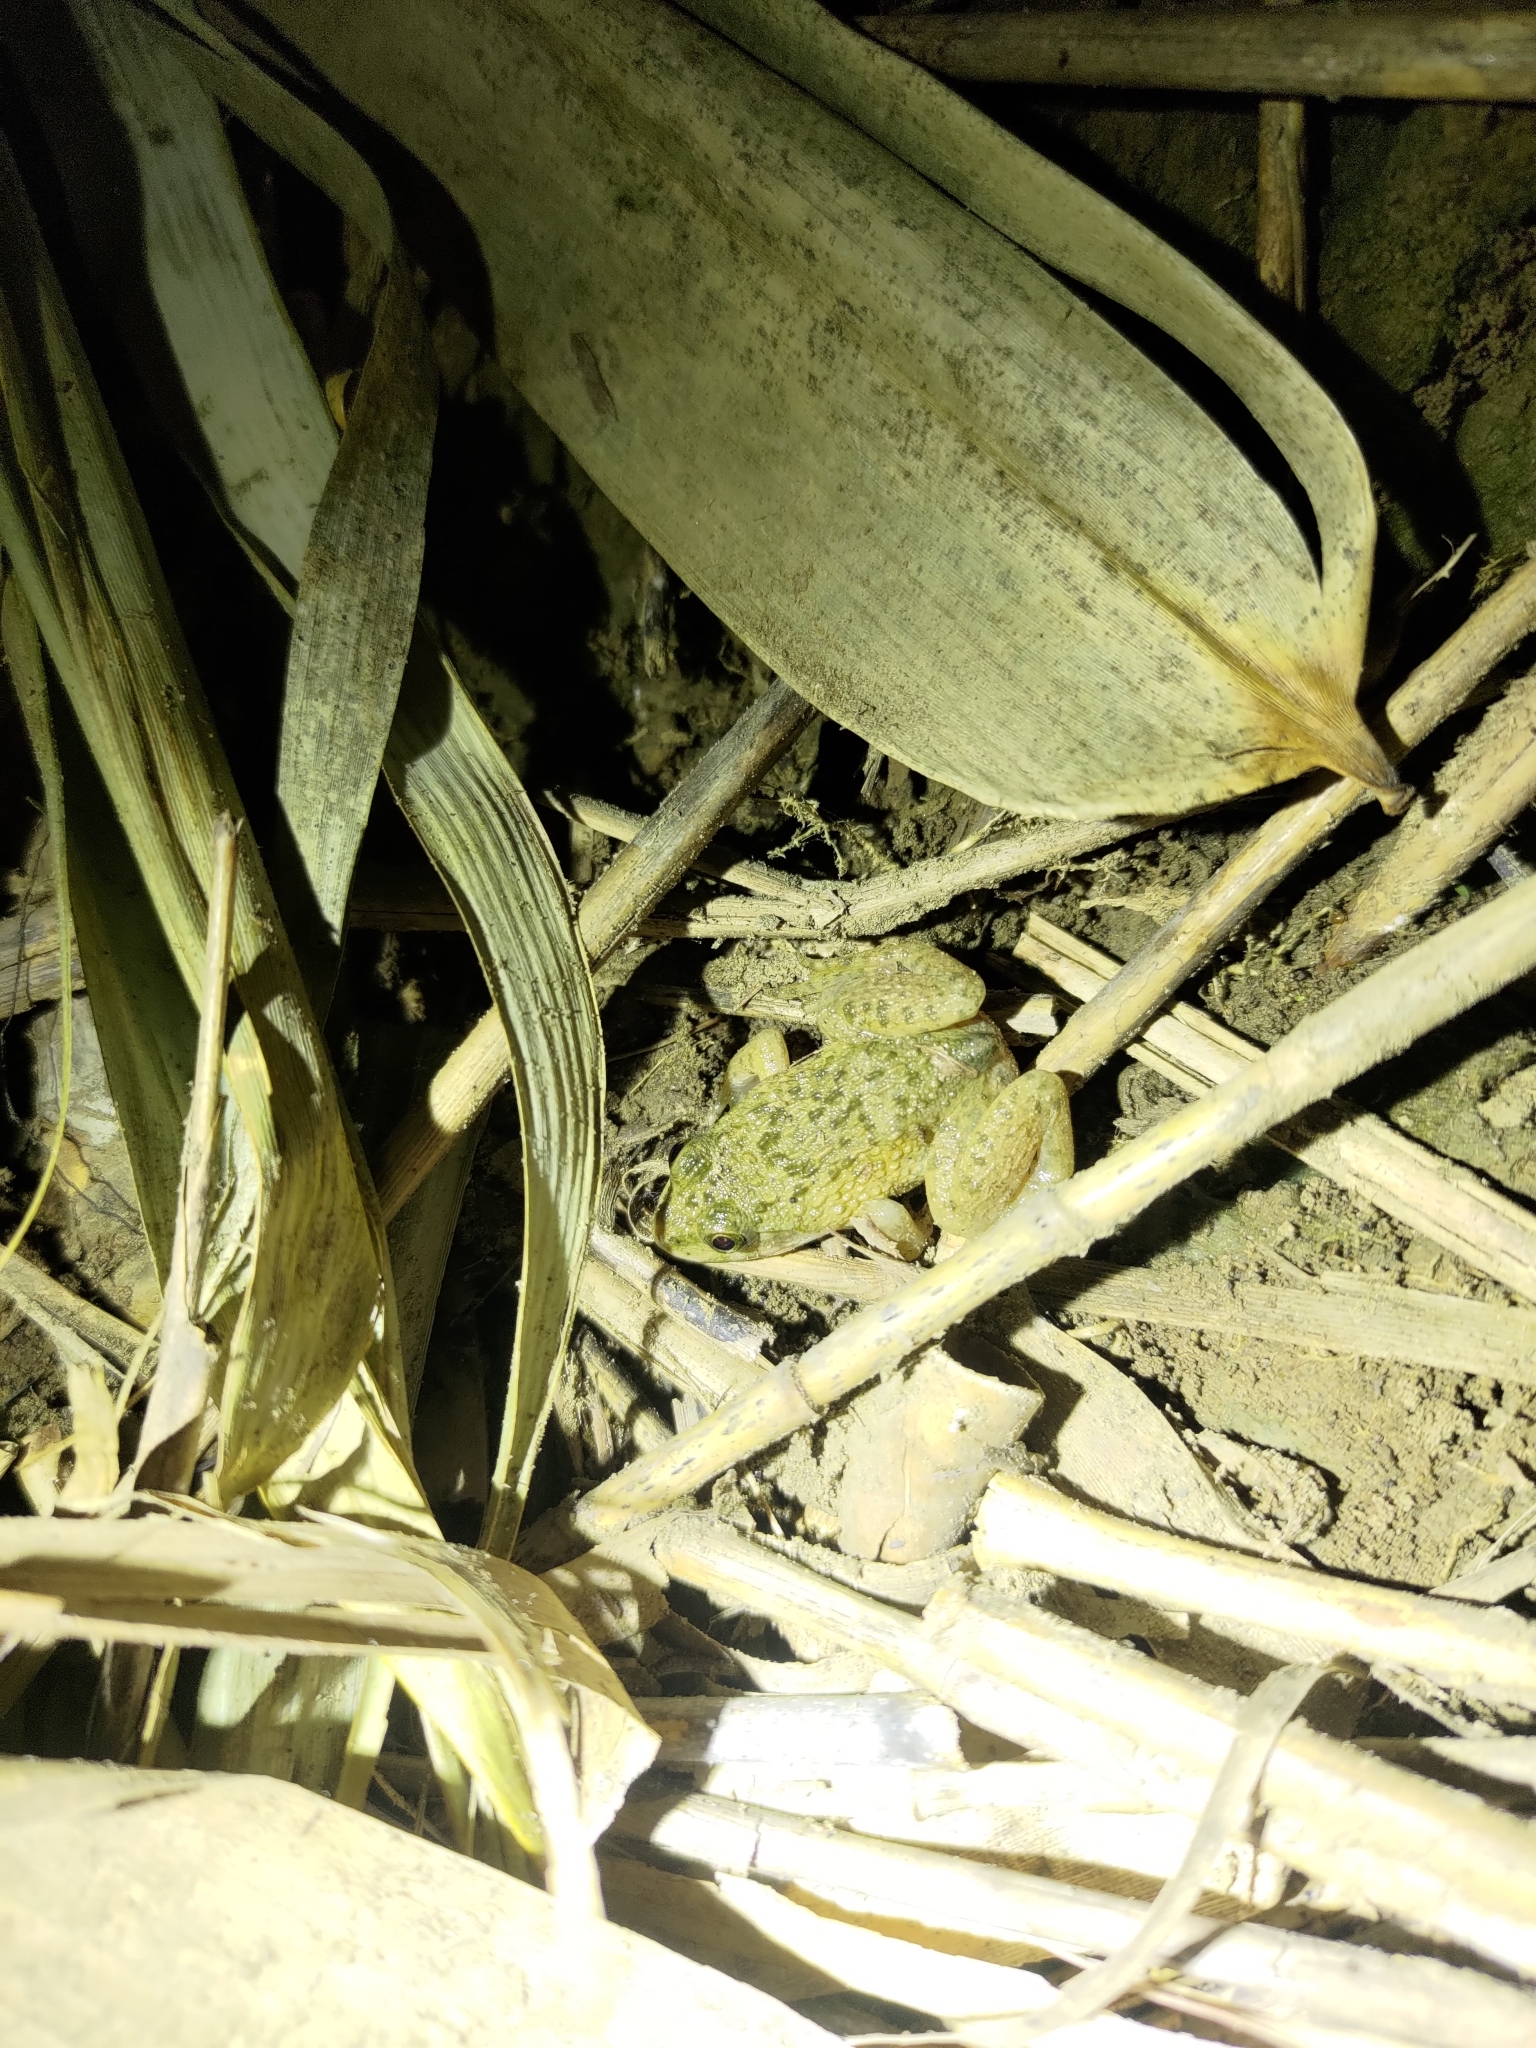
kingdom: Animalia
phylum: Chordata
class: Amphibia
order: Anura
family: Dicroglossidae
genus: Hoplobatrachus
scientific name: Hoplobatrachus rugulosus
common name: Chinese edible frog
